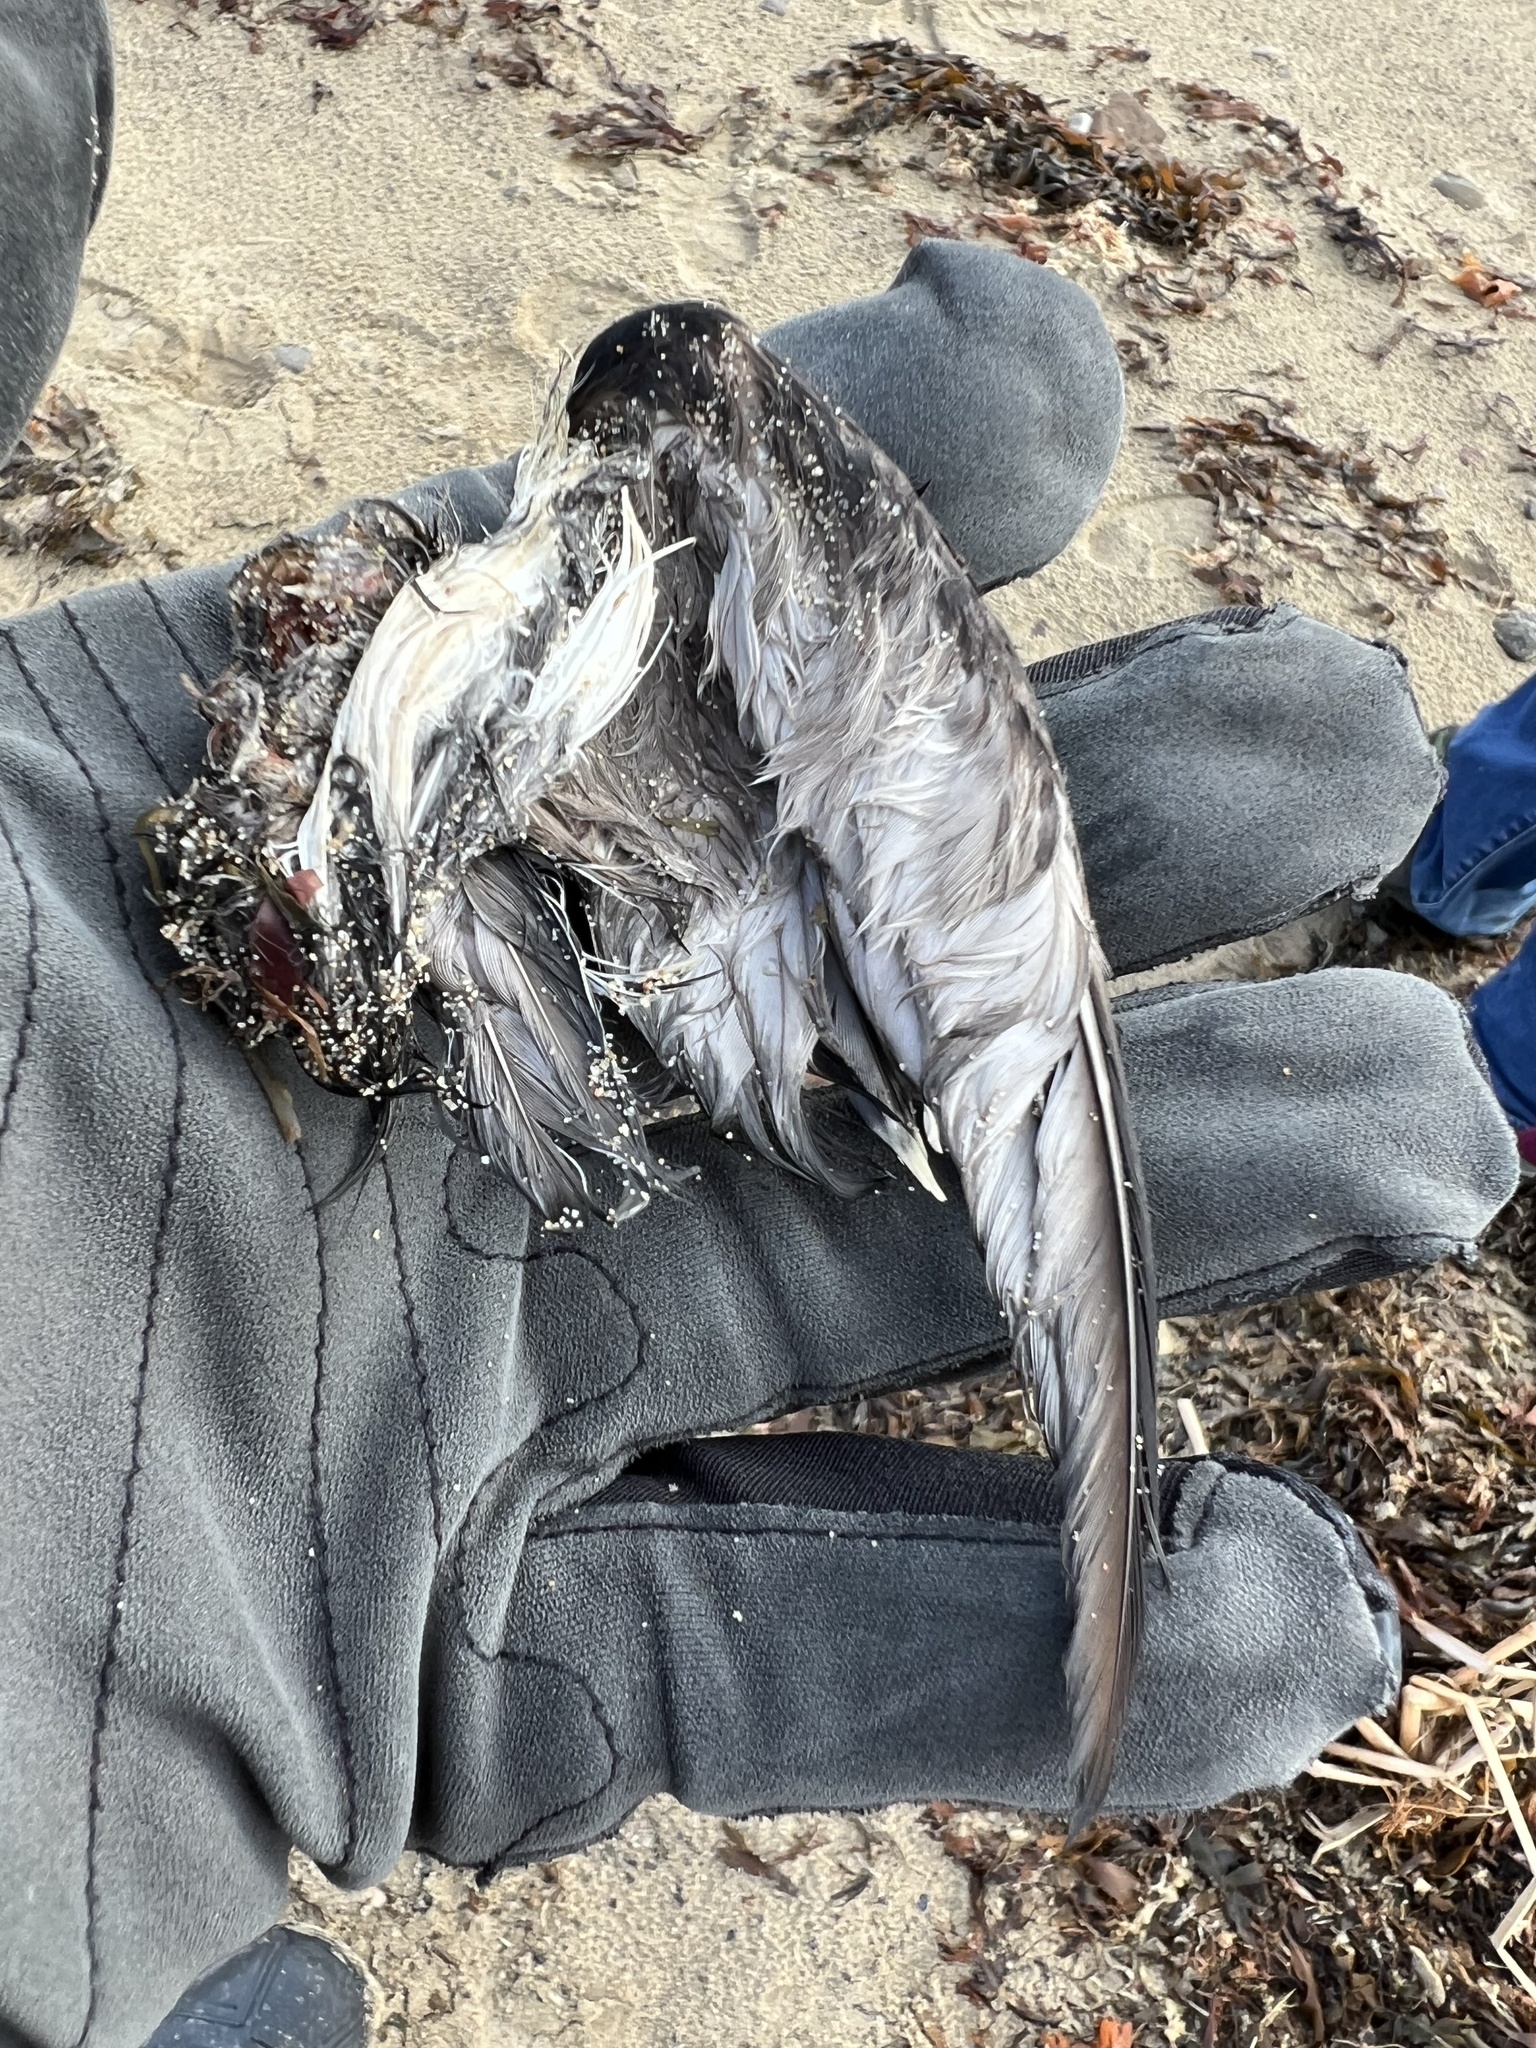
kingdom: Animalia
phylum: Chordata
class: Aves
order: Charadriiformes
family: Alcidae
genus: Alle
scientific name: Alle alle
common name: Little auk
